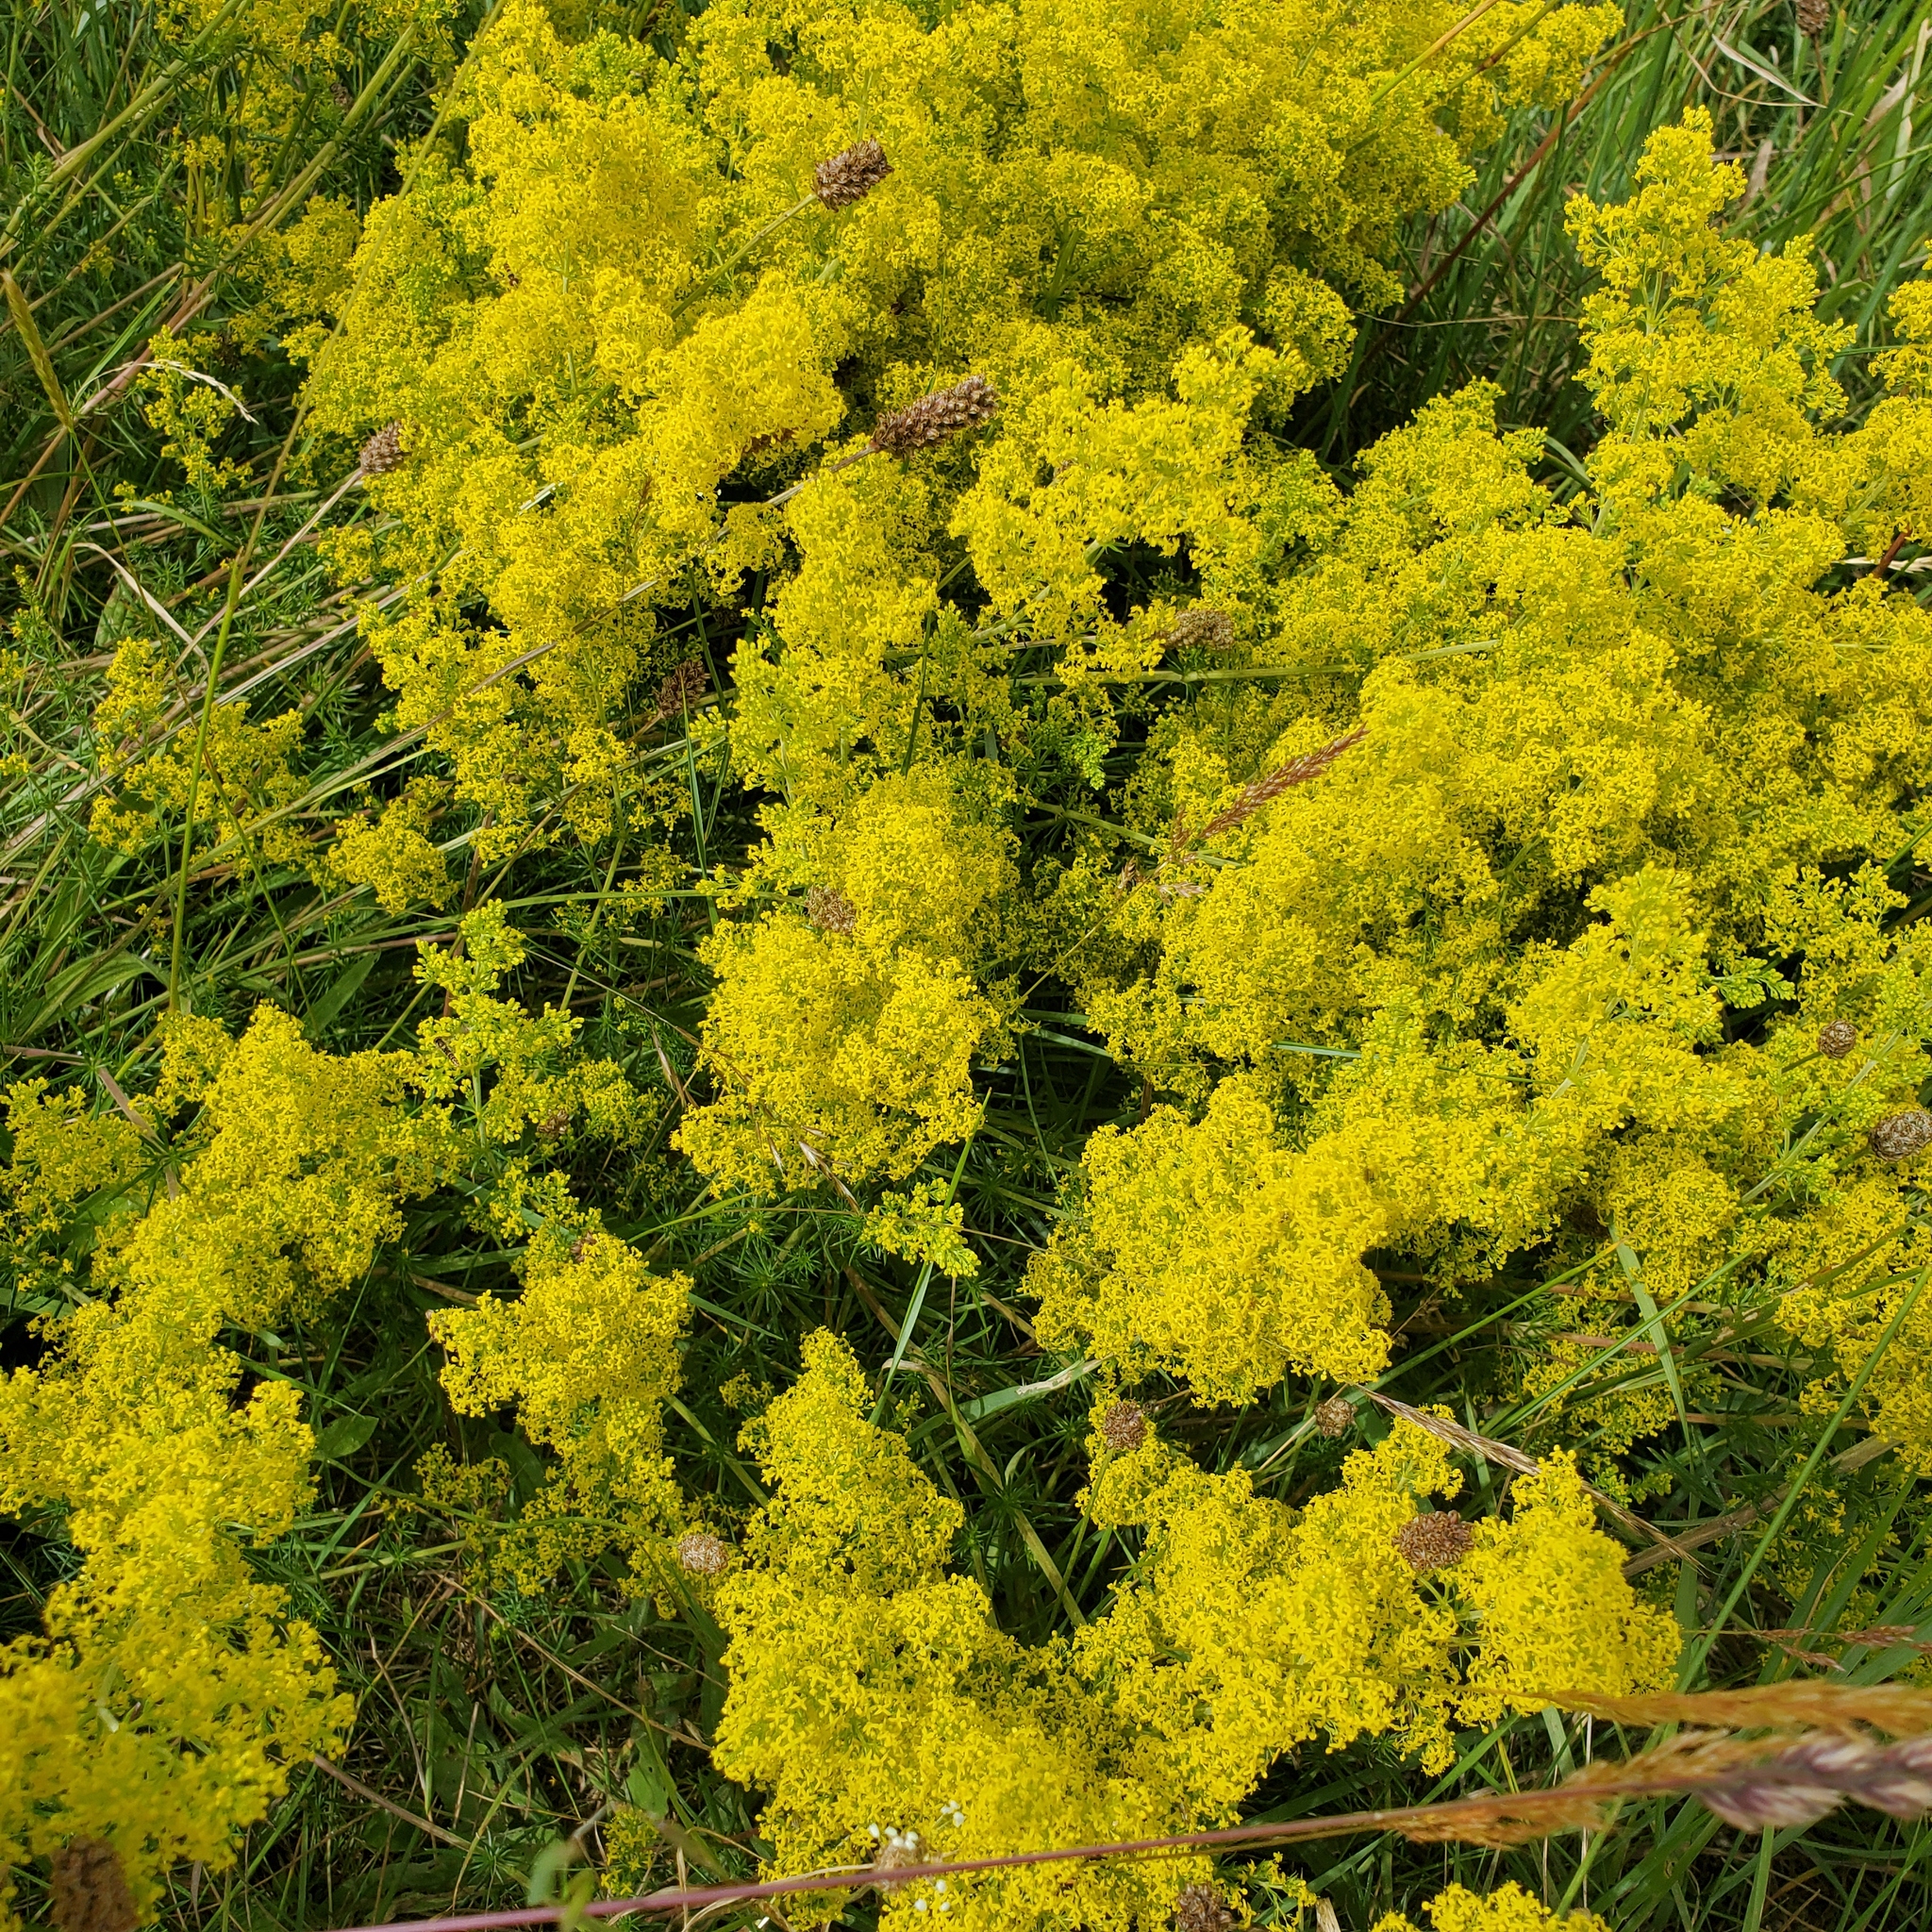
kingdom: Plantae
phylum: Tracheophyta
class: Magnoliopsida
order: Gentianales
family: Rubiaceae
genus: Galium
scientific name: Galium verum
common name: Lady's bedstraw
